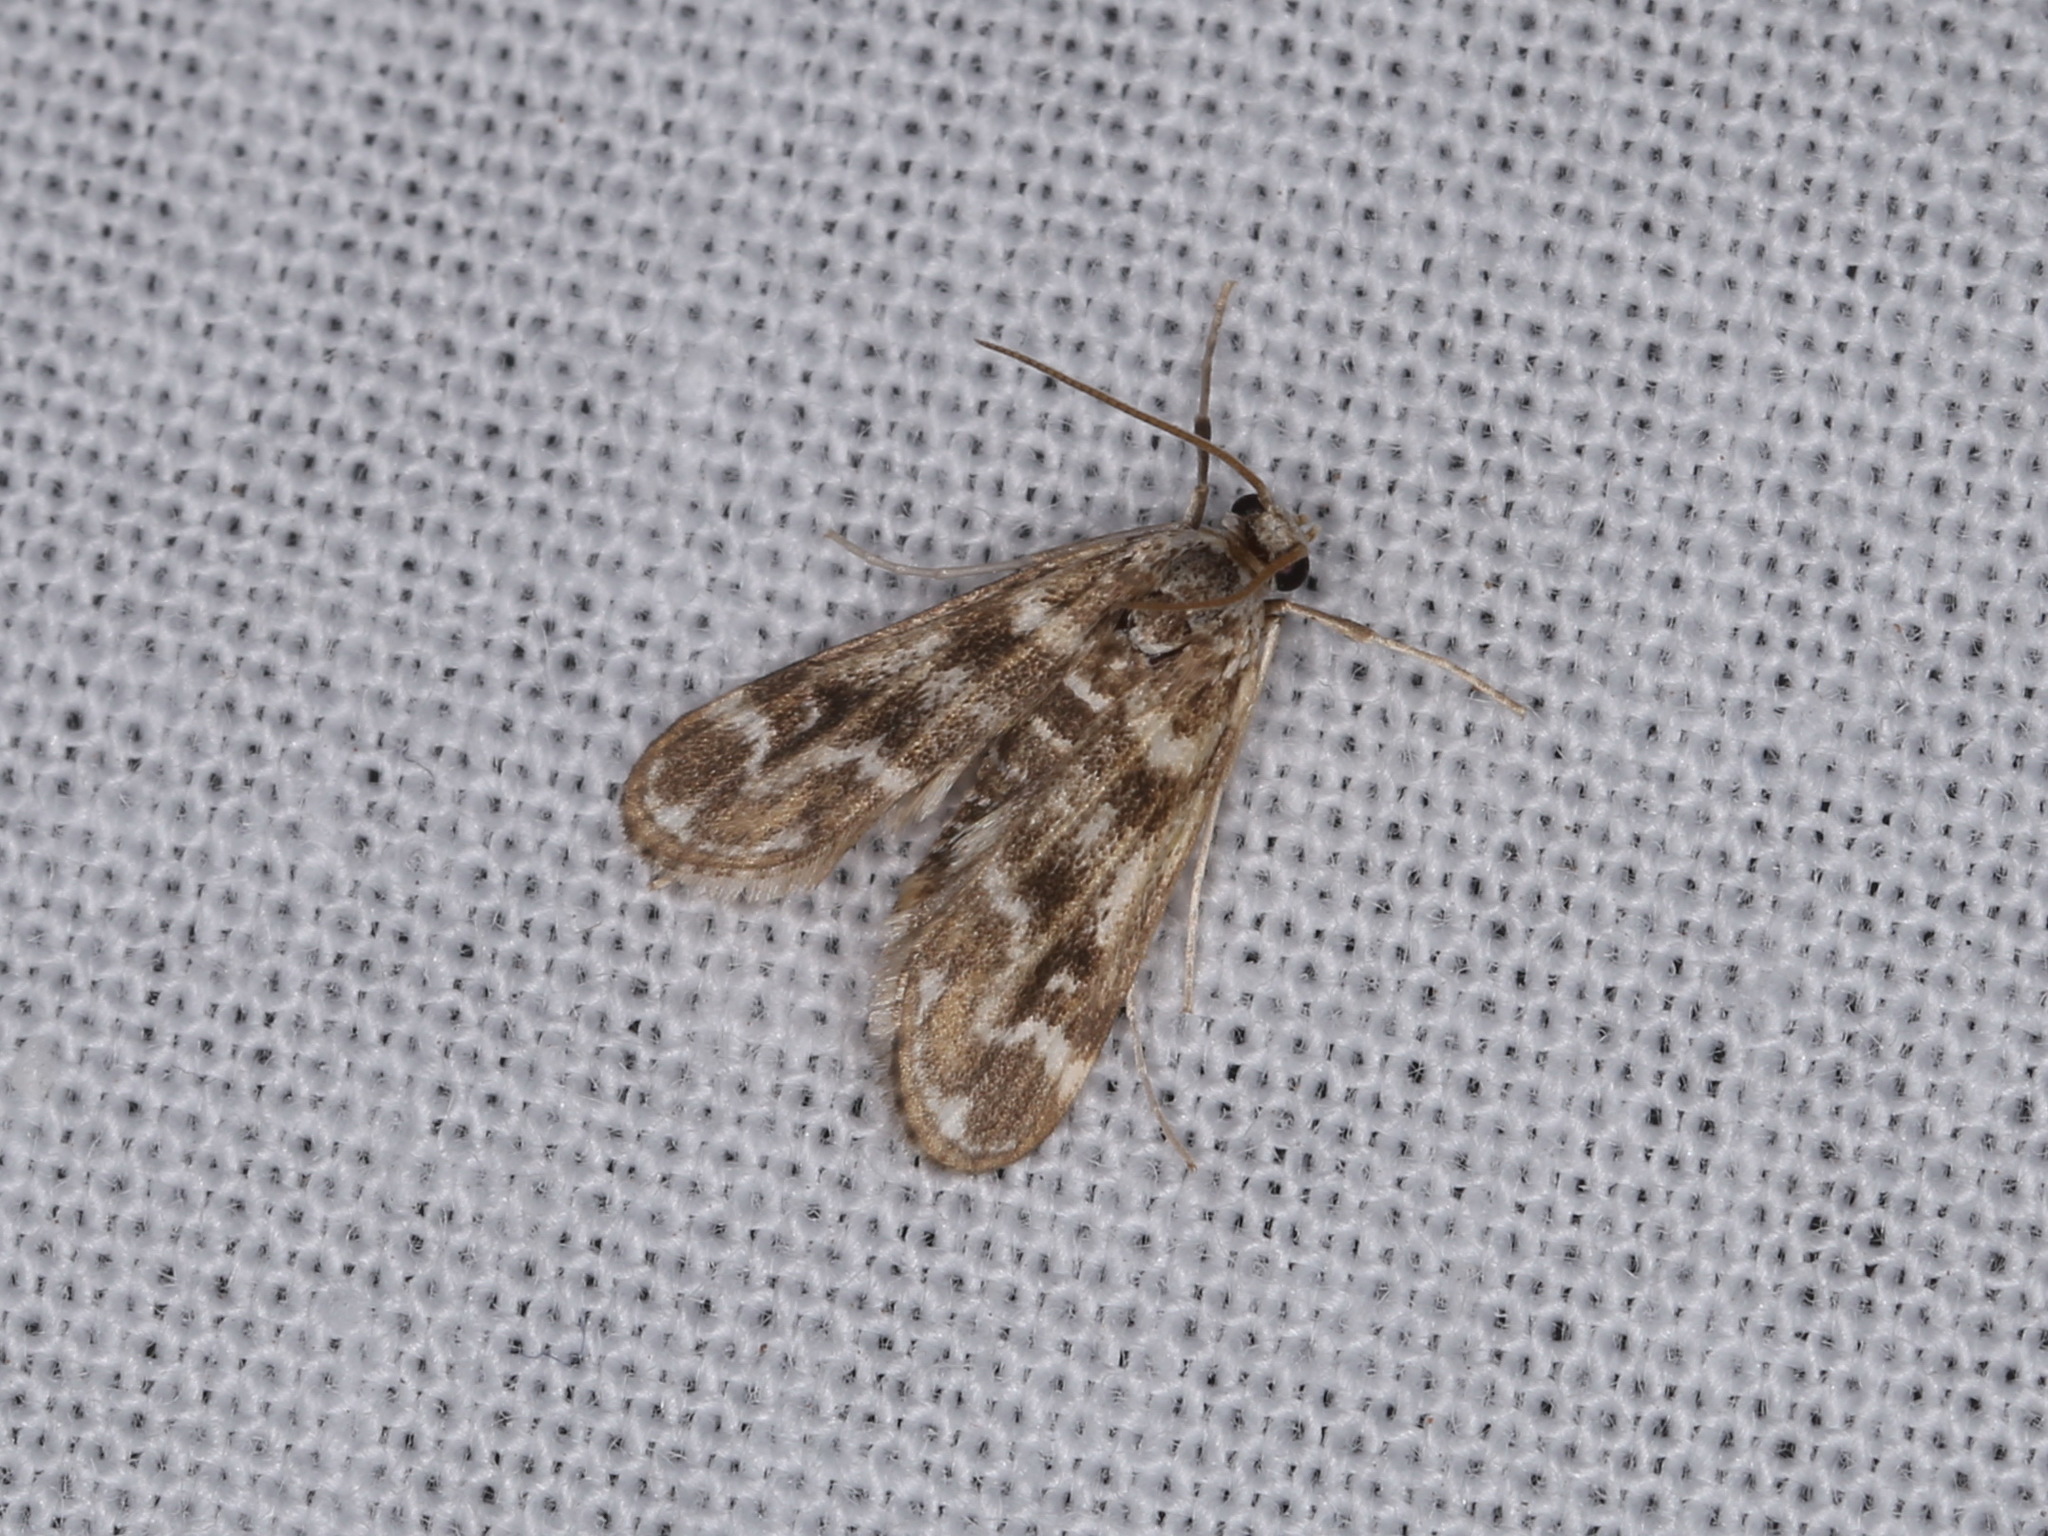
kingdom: Animalia
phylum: Arthropoda
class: Insecta
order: Lepidoptera
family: Crambidae
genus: Hygraula
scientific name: Hygraula nitens
